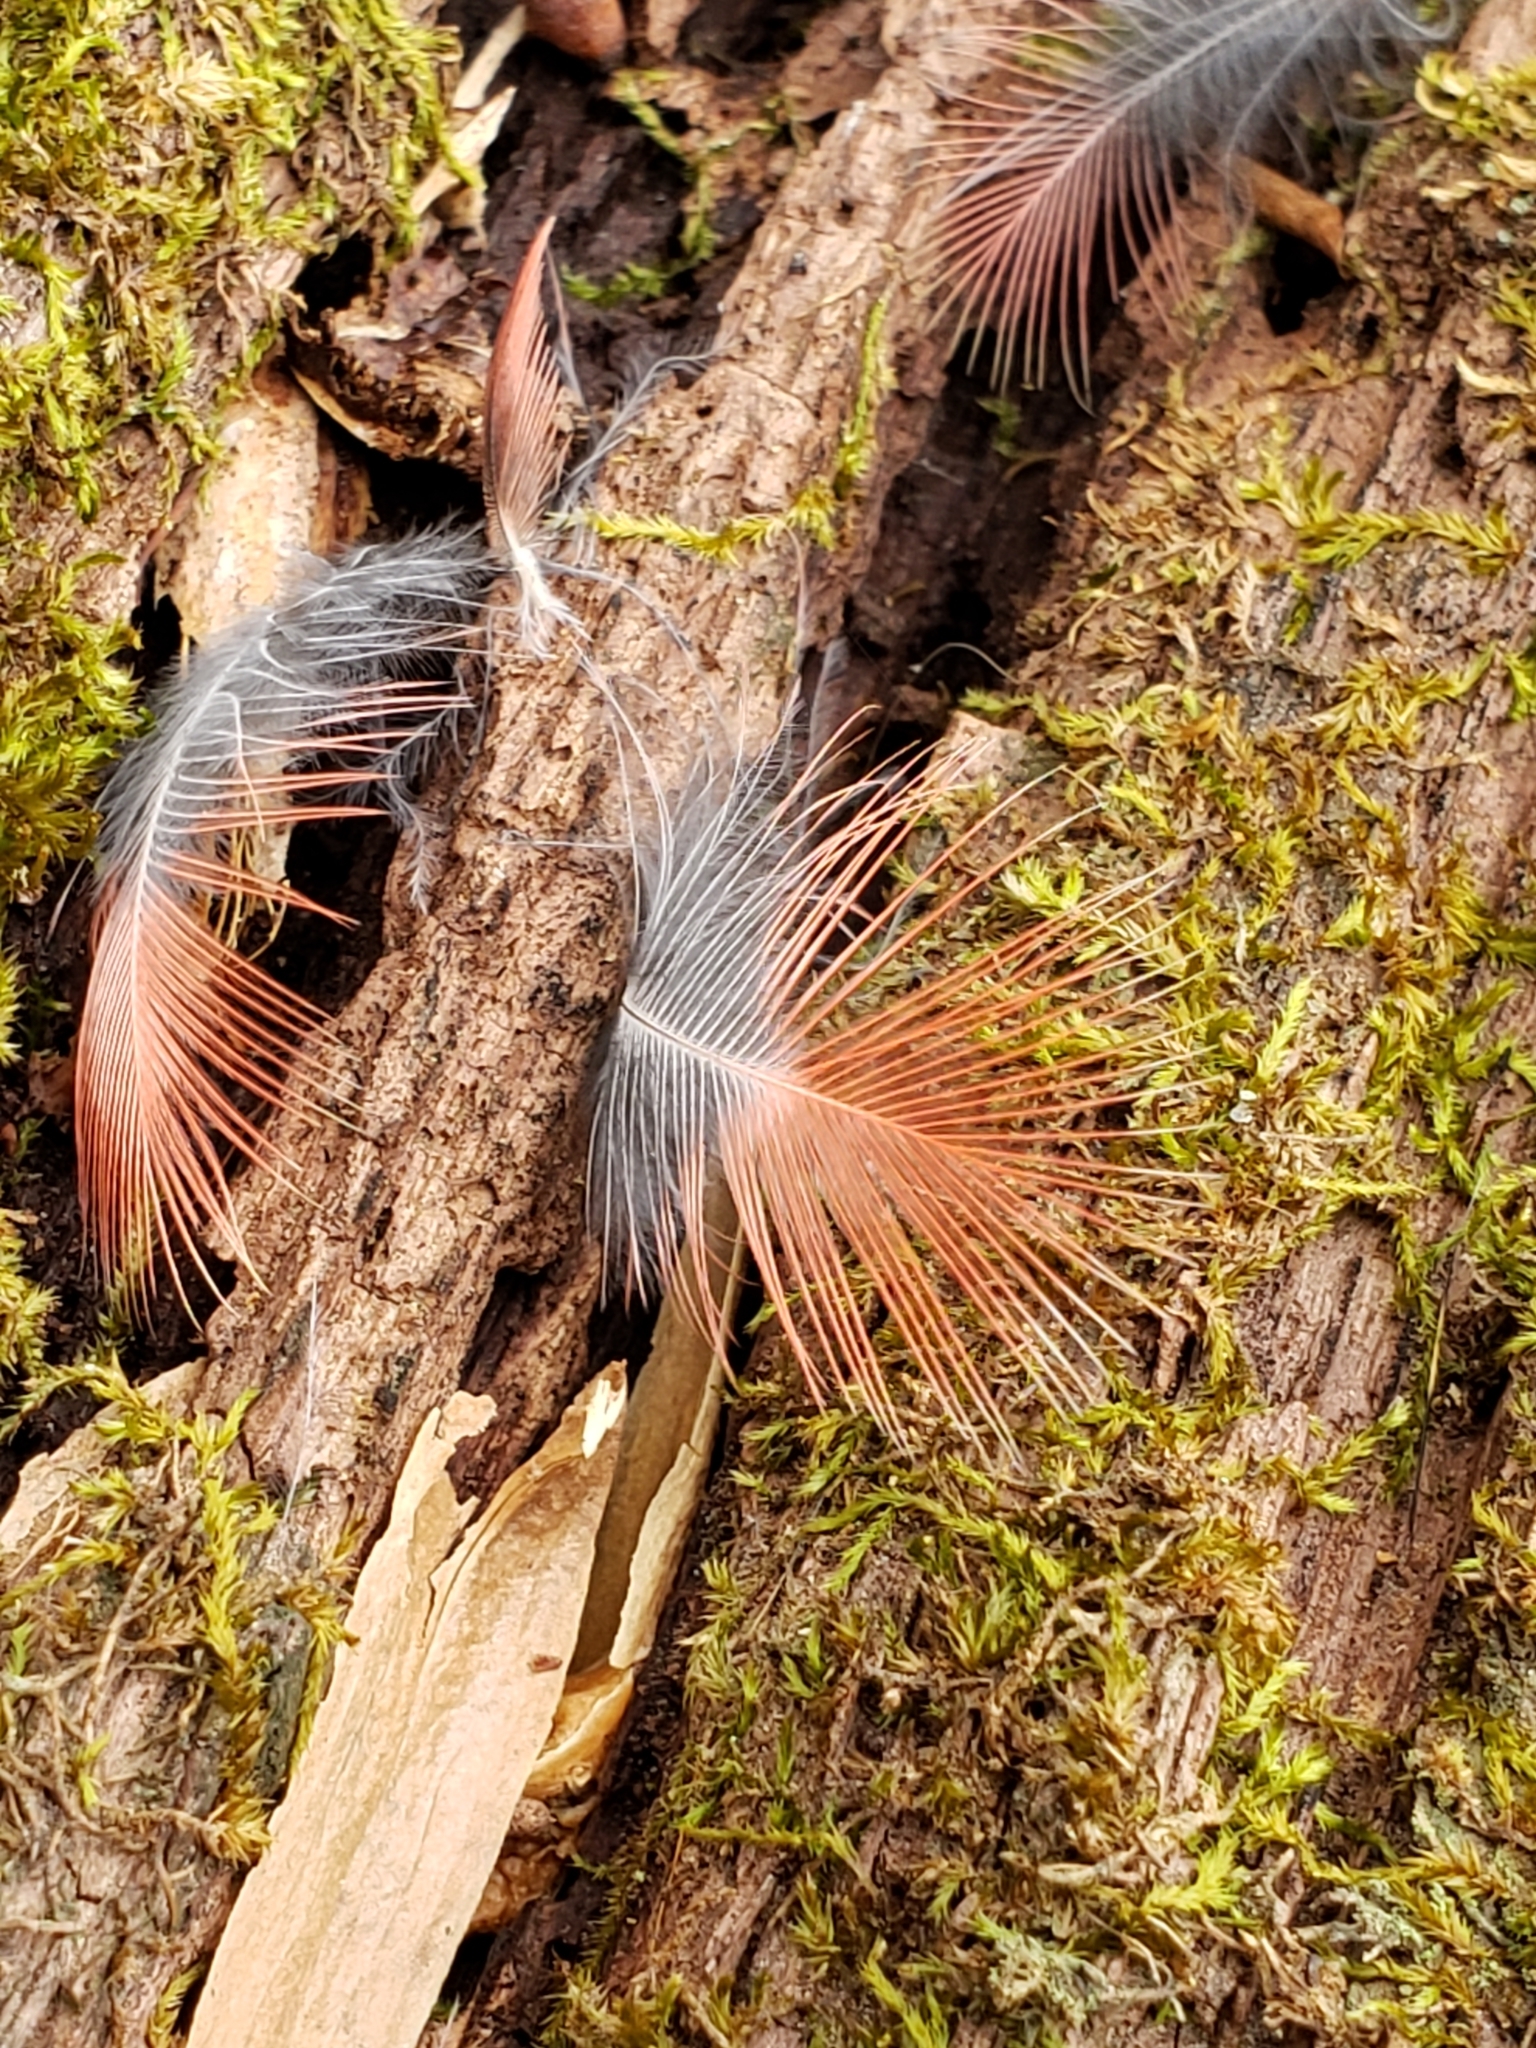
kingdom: Animalia
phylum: Chordata
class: Aves
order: Passeriformes
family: Cardinalidae
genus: Cardinalis
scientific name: Cardinalis cardinalis
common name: Northern cardinal
